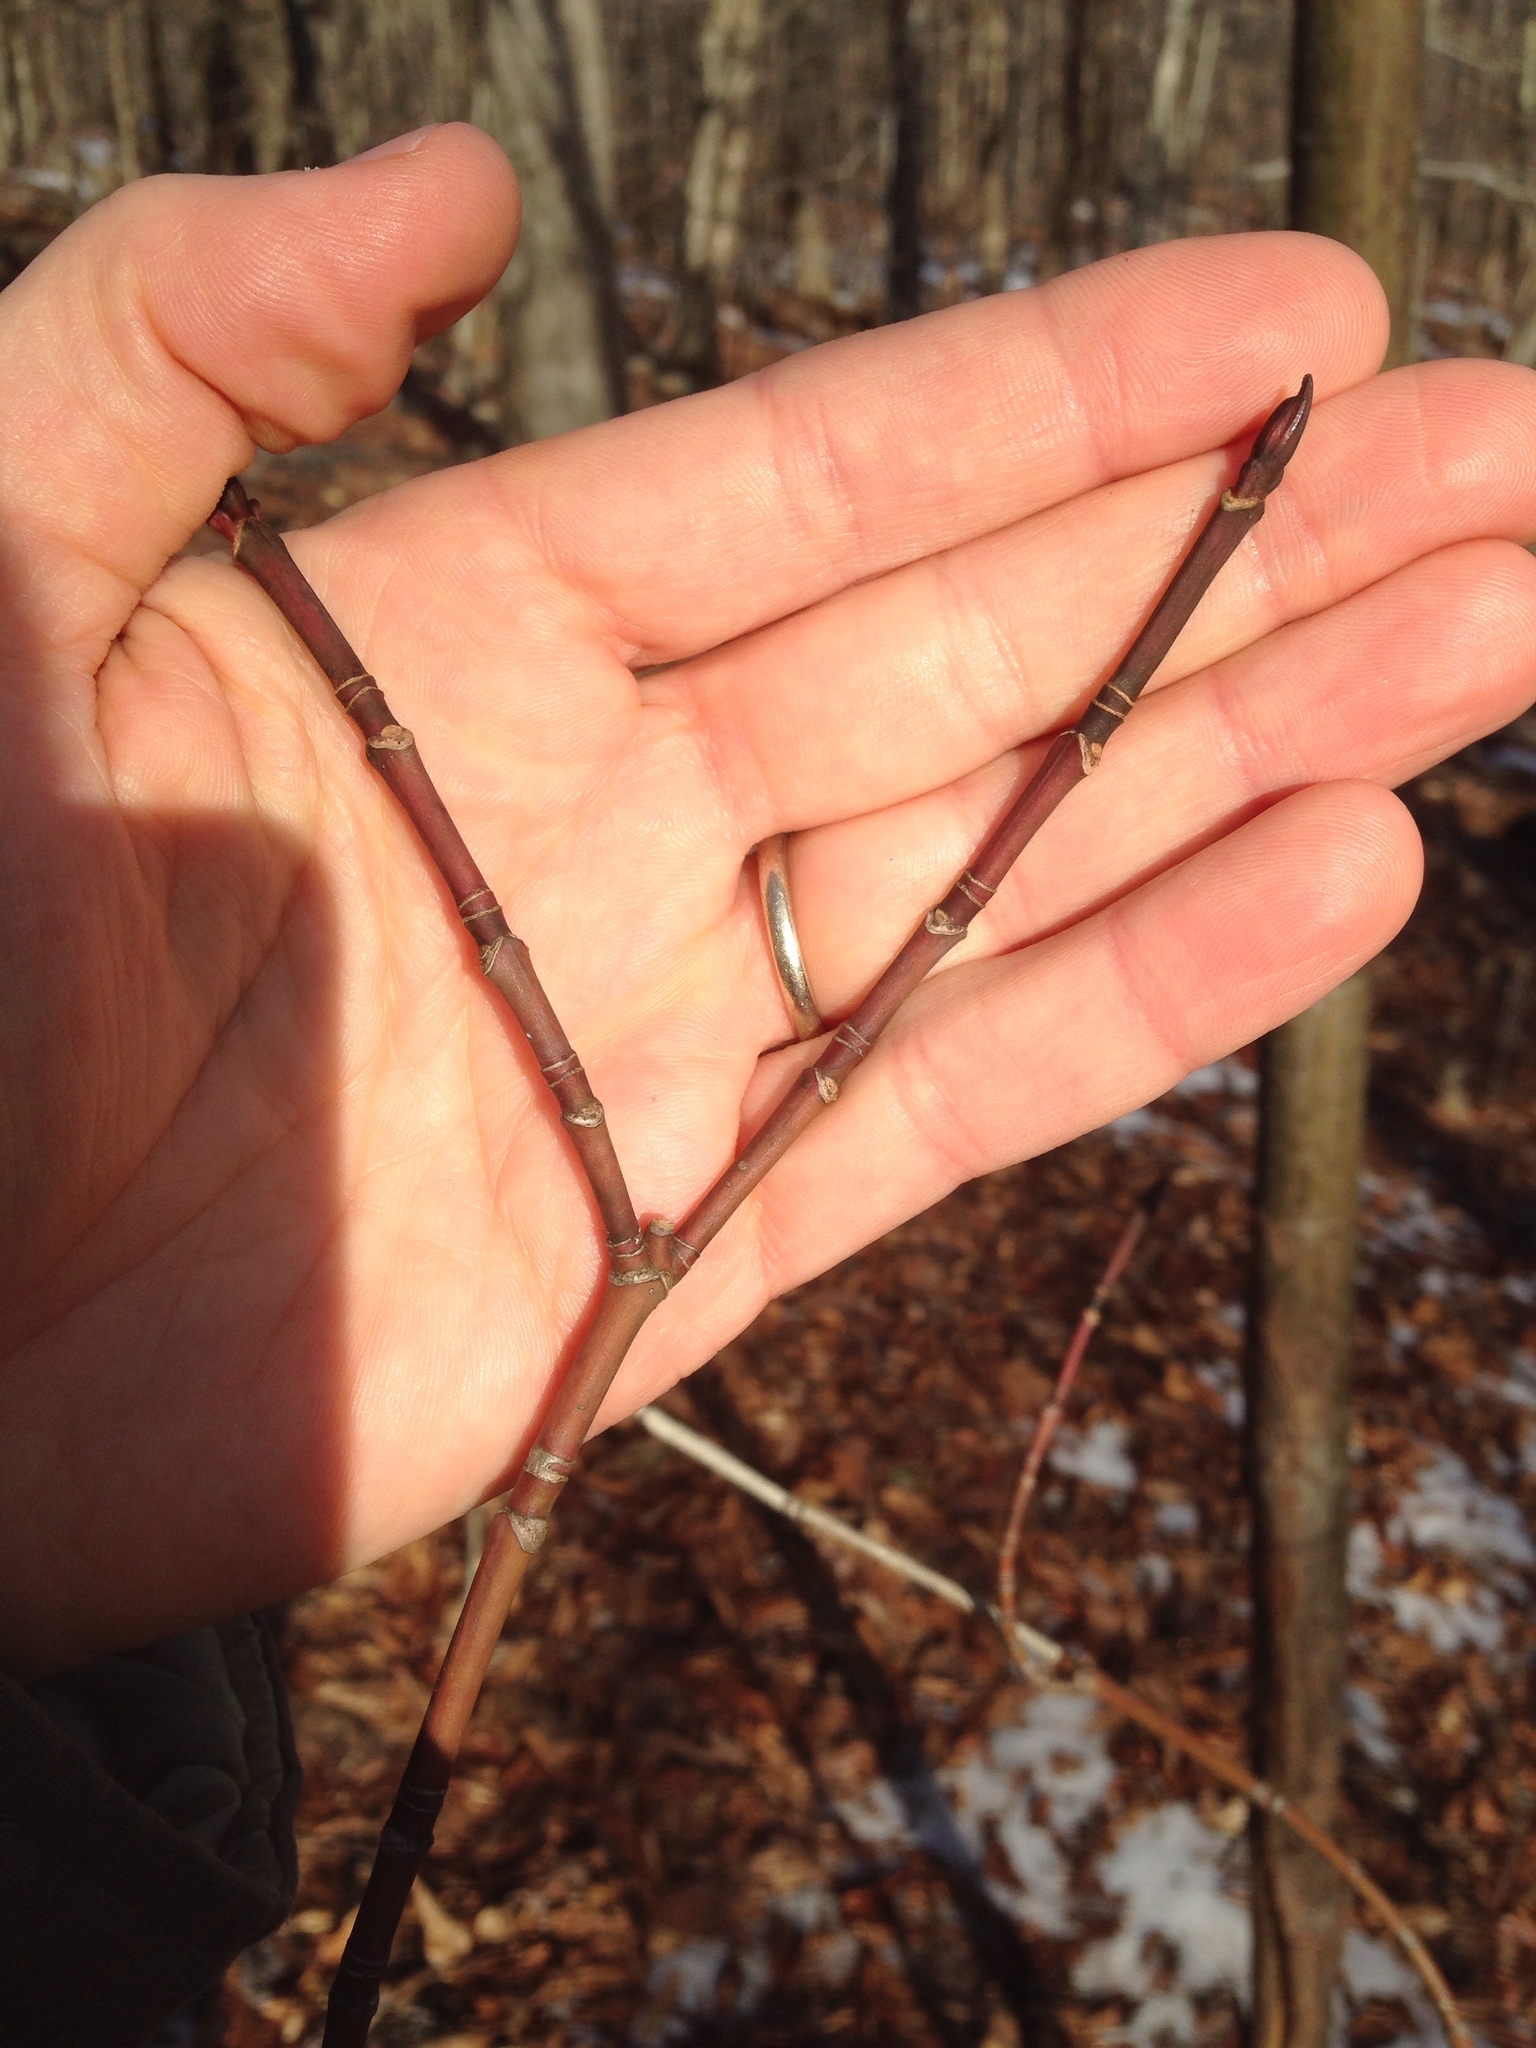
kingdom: Plantae
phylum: Tracheophyta
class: Magnoliopsida
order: Sapindales
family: Sapindaceae
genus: Acer
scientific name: Acer pensylvanicum
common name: Moosewood
